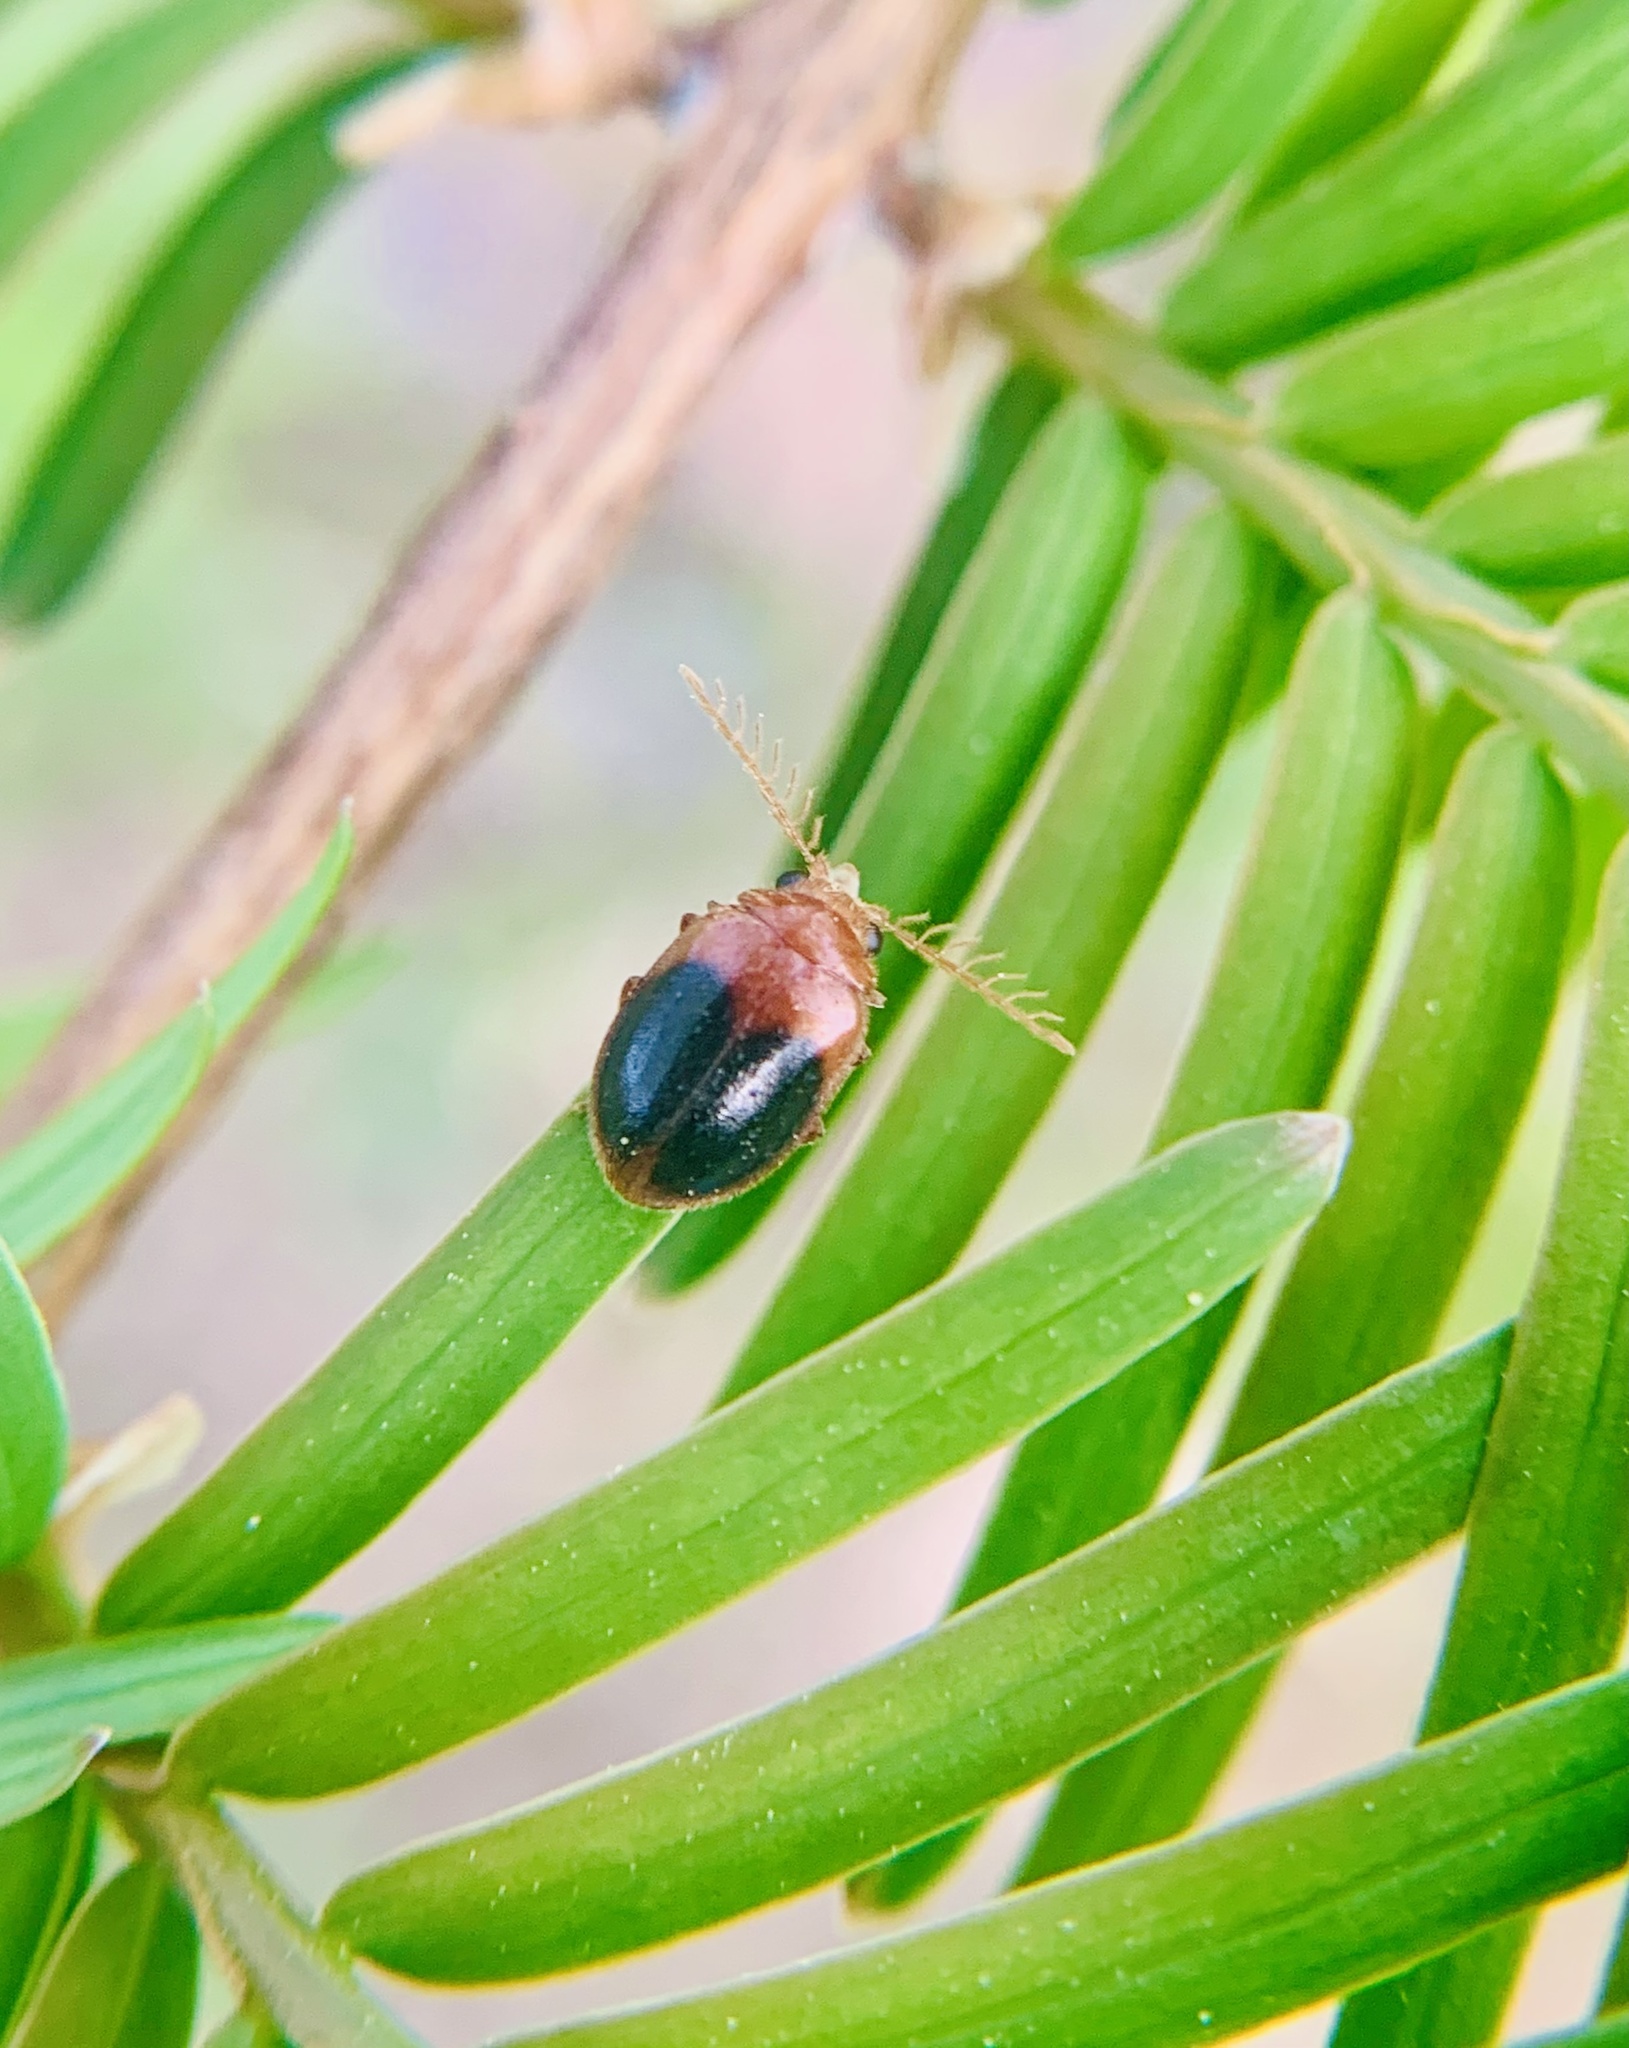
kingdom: Animalia
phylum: Arthropoda
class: Insecta
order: Coleoptera
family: Scirtidae
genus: Prionocyphon
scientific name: Prionocyphon discoideus
